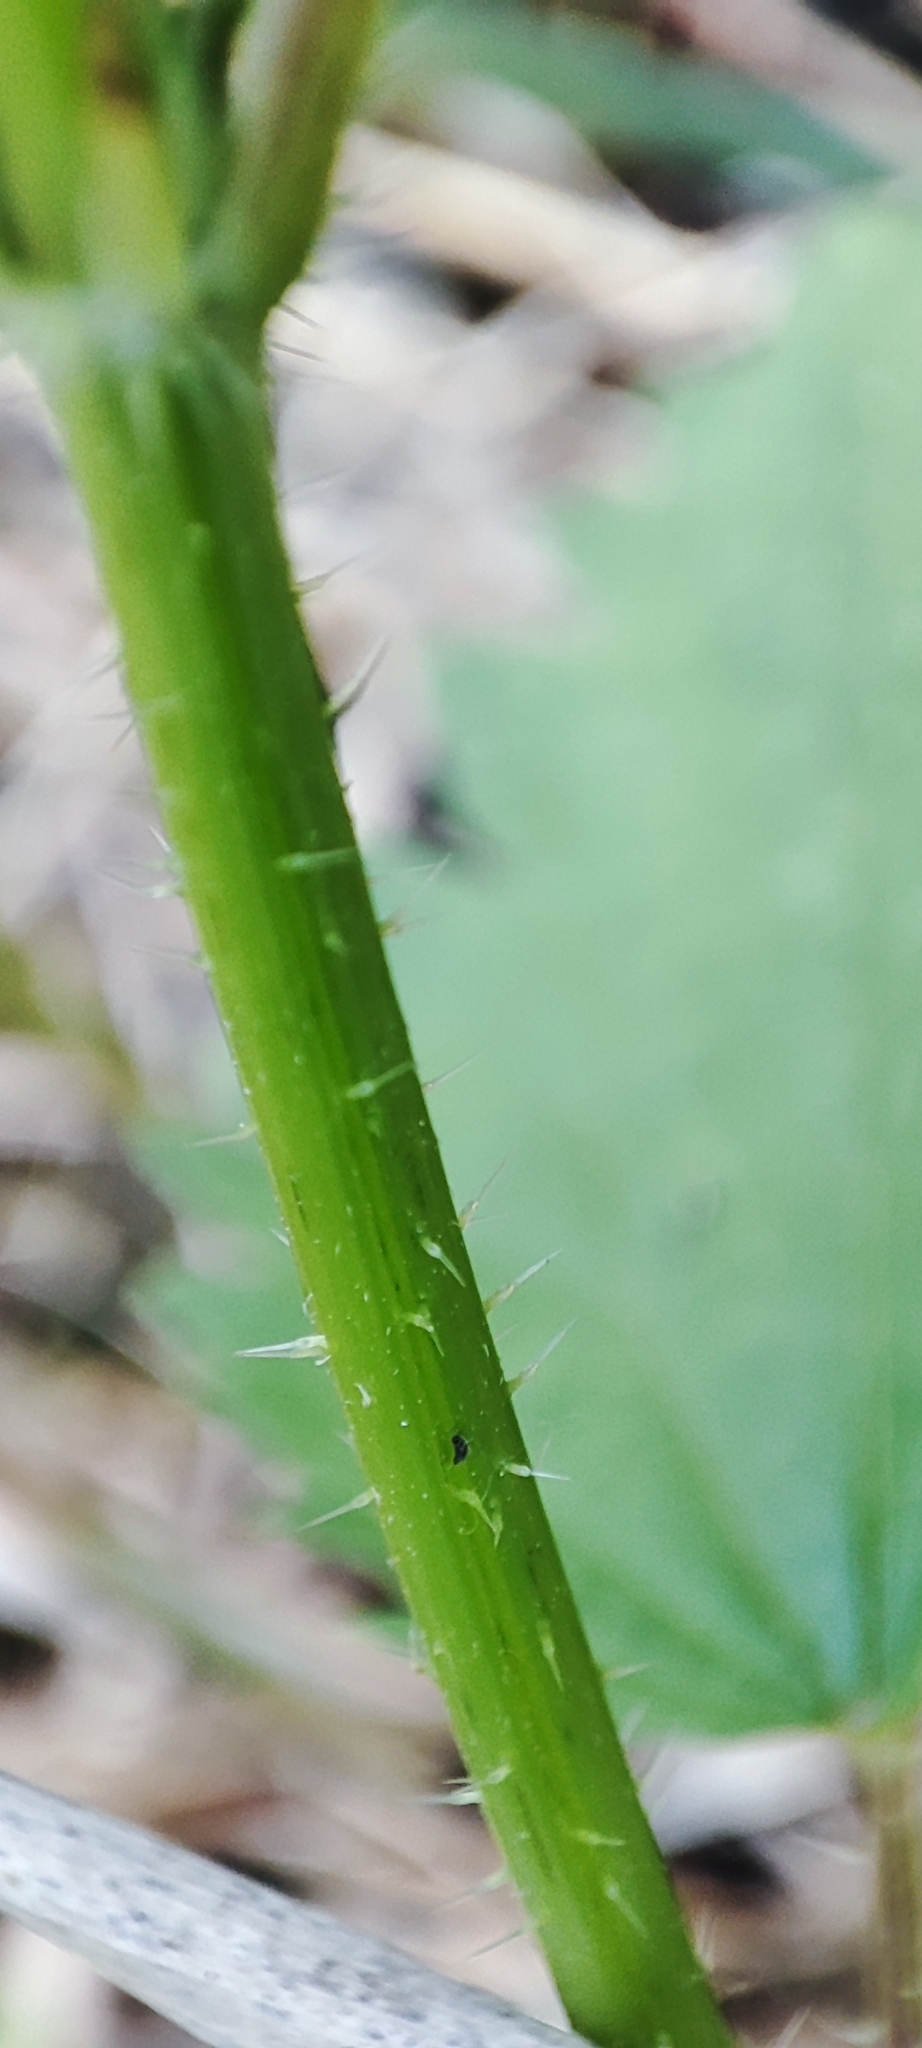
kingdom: Plantae
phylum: Tracheophyta
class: Magnoliopsida
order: Rosales
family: Urticaceae
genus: Urtica
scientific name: Urtica dioica
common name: Common nettle
